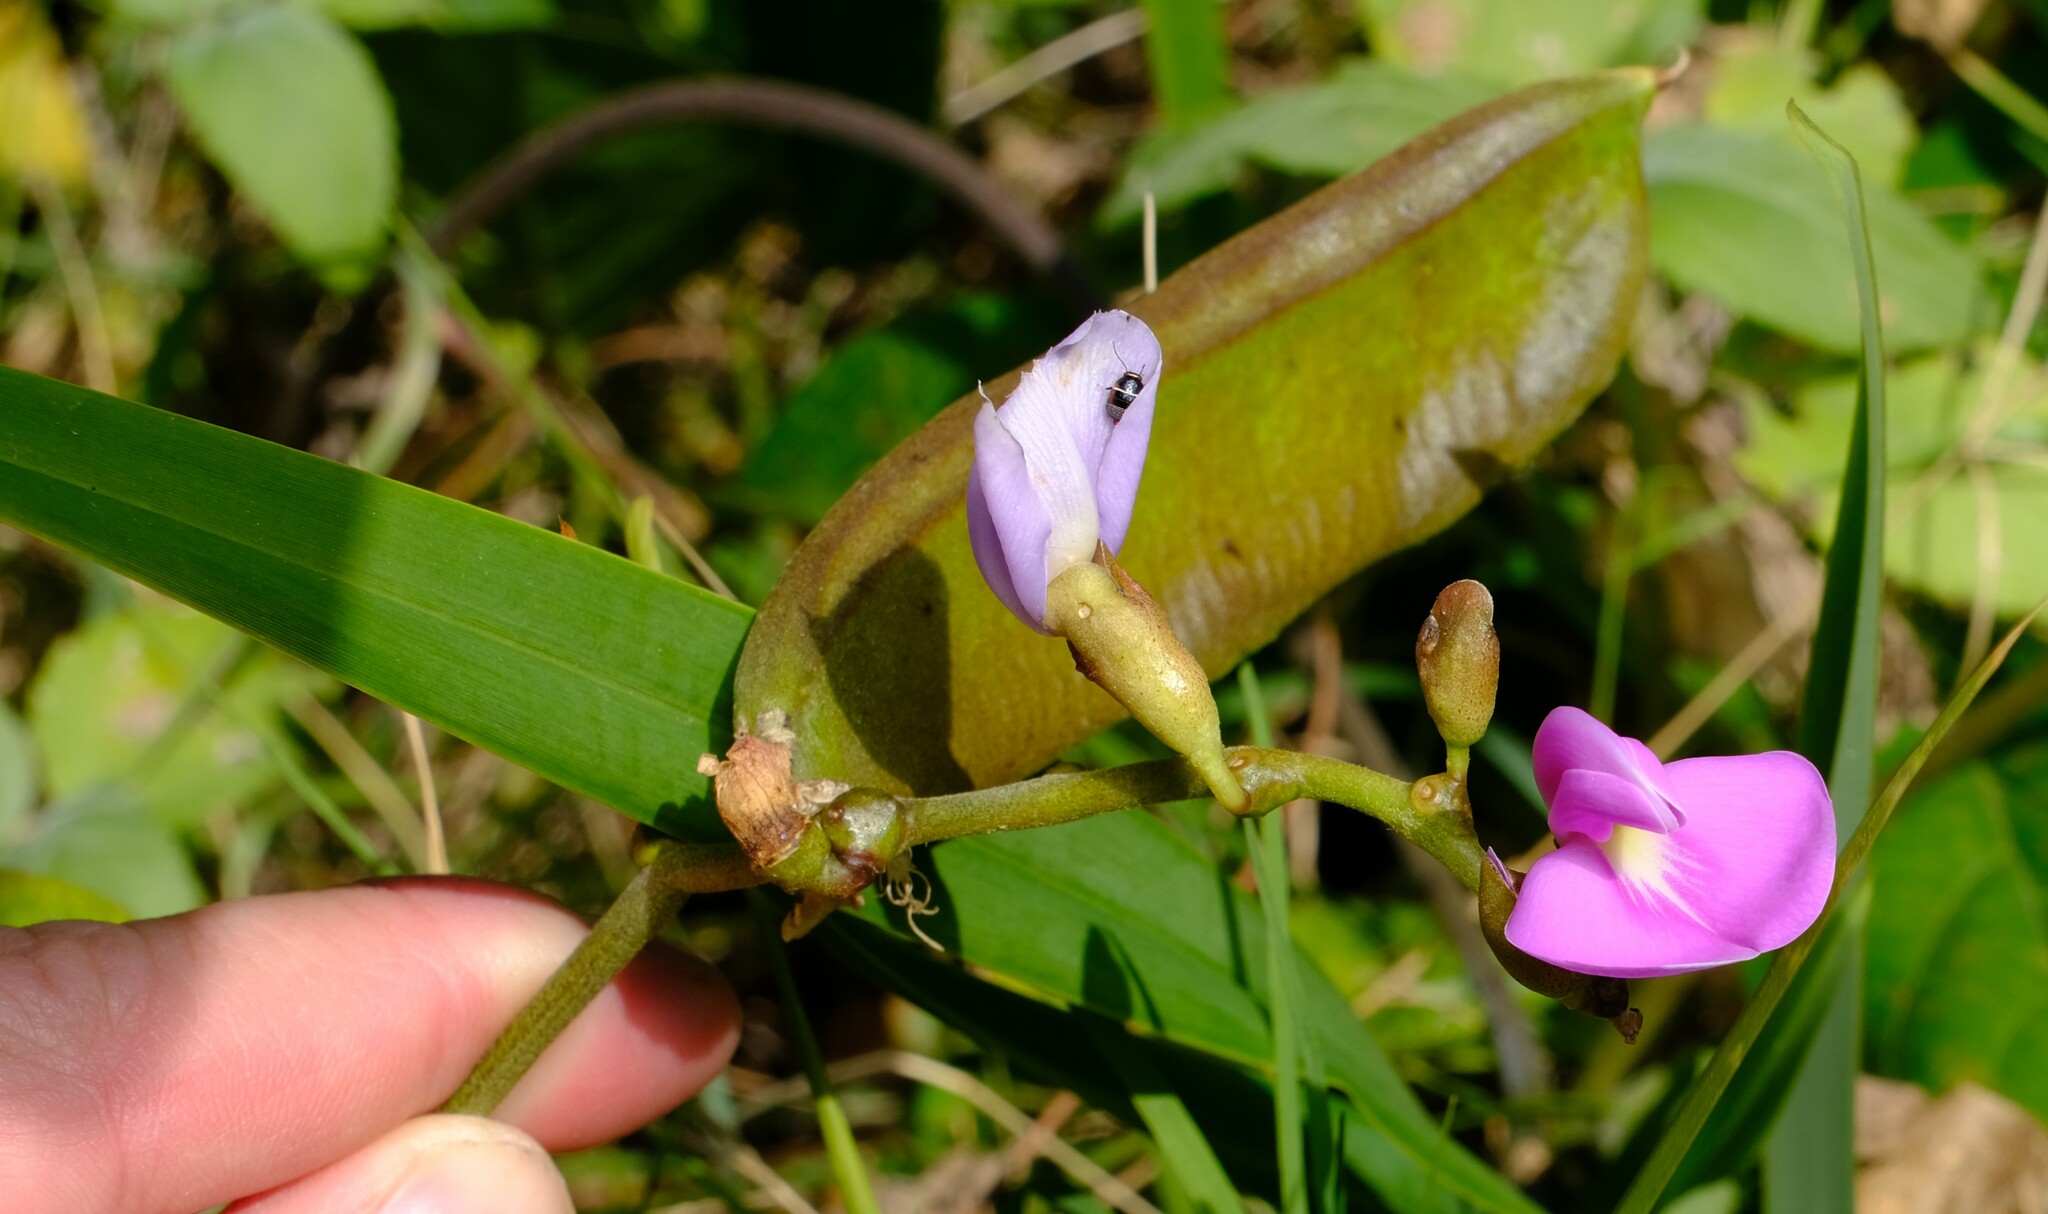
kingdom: Plantae
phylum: Tracheophyta
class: Magnoliopsida
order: Fabales
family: Fabaceae
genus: Canavalia
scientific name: Canavalia rosea
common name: Beach-bean
